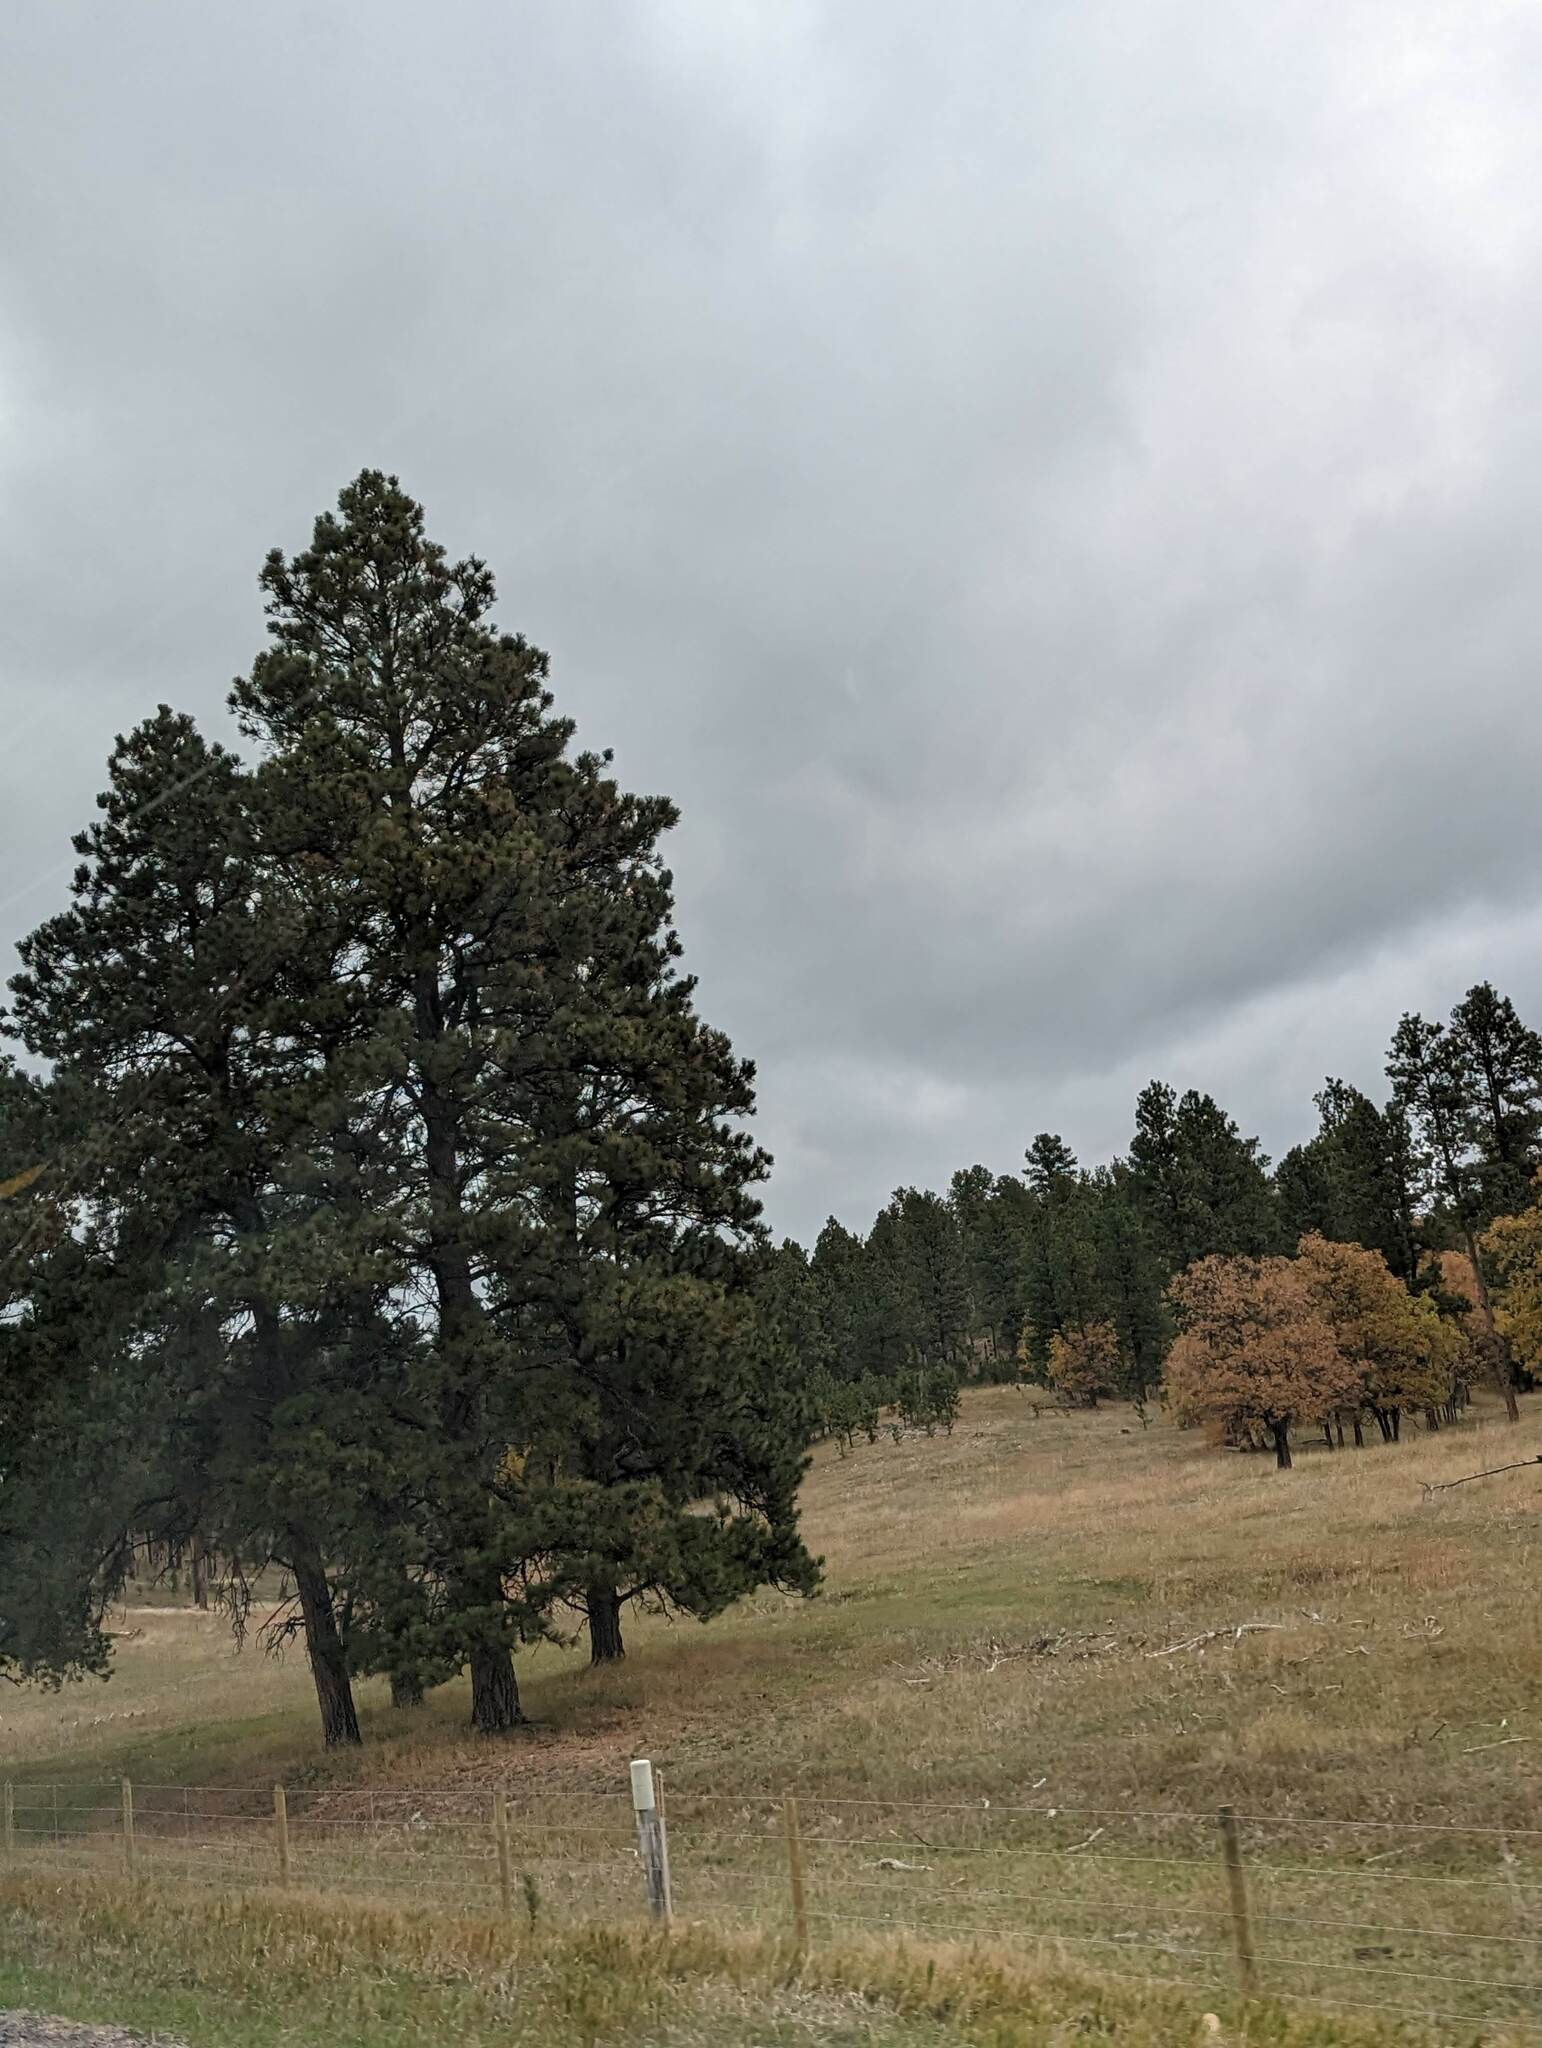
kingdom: Plantae
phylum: Tracheophyta
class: Pinopsida
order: Pinales
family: Pinaceae
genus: Pinus
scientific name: Pinus ponderosa
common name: Western yellow-pine
